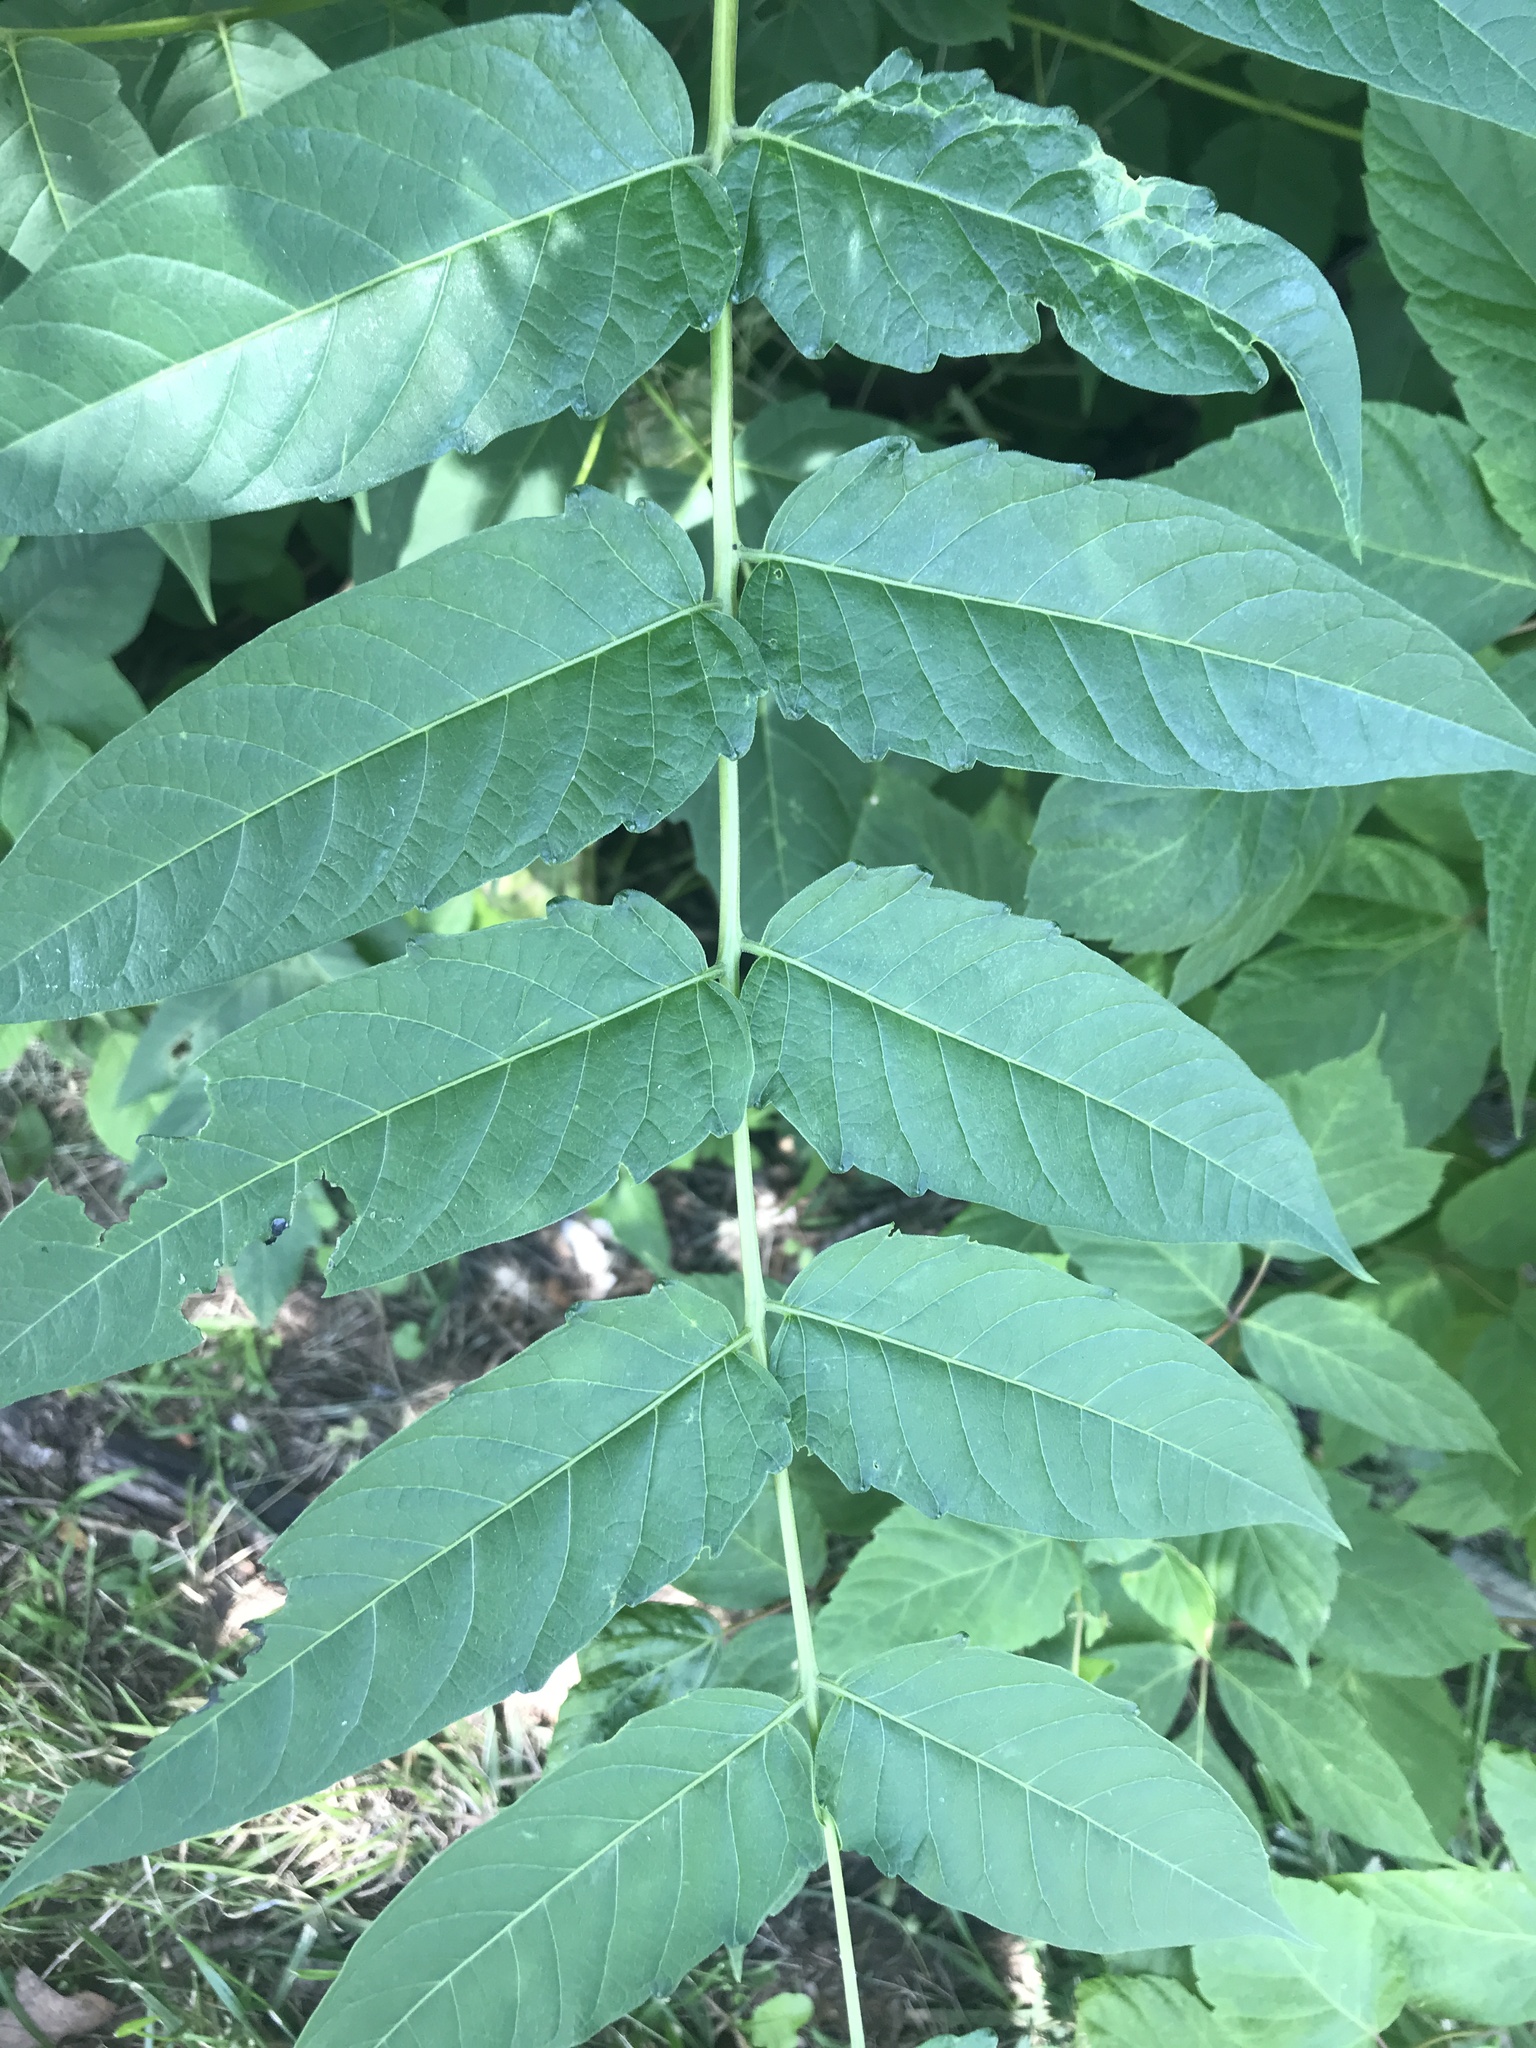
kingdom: Plantae
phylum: Tracheophyta
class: Magnoliopsida
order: Sapindales
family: Simaroubaceae
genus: Ailanthus
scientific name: Ailanthus altissima
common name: Tree-of-heaven
